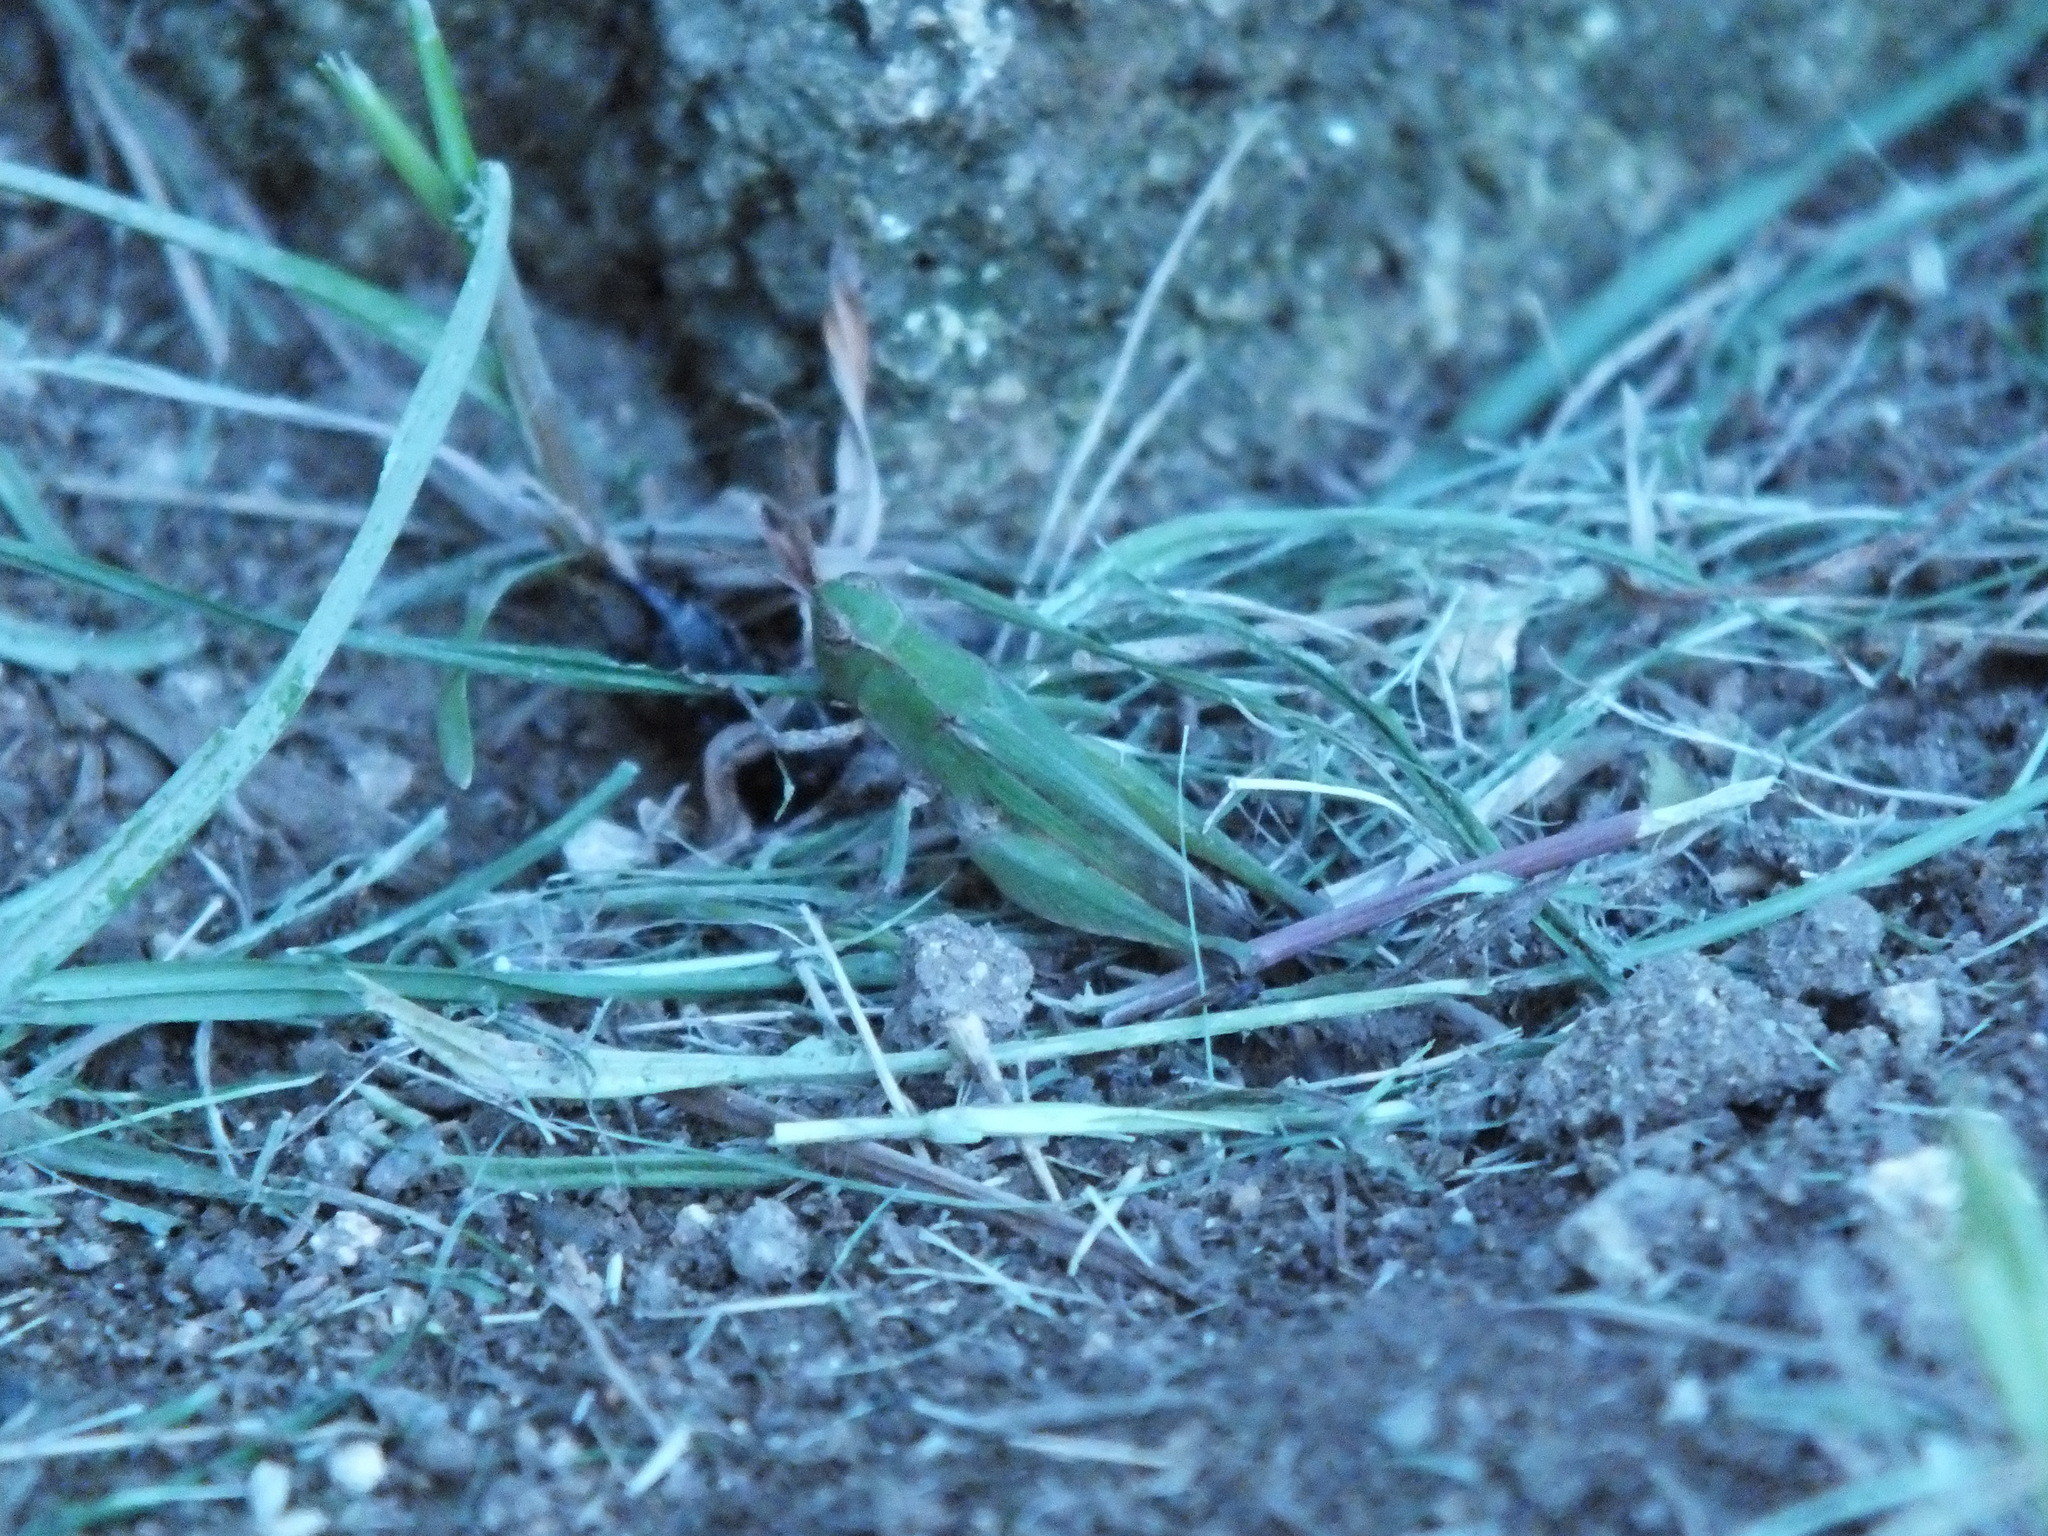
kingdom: Animalia
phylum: Arthropoda
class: Insecta
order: Orthoptera
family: Acrididae
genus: Orphulella
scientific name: Orphulella punctata
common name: Slant-faced grasshopper
